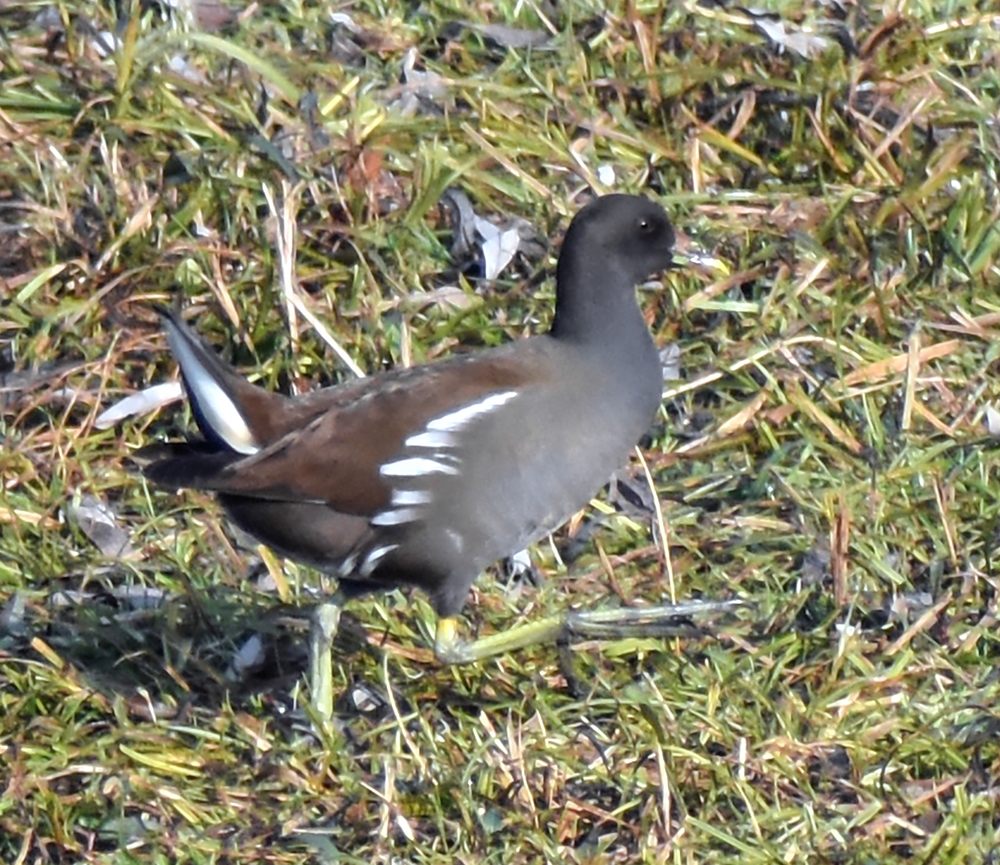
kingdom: Animalia
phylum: Chordata
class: Aves
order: Gruiformes
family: Rallidae
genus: Gallinula
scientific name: Gallinula chloropus
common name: Common moorhen
